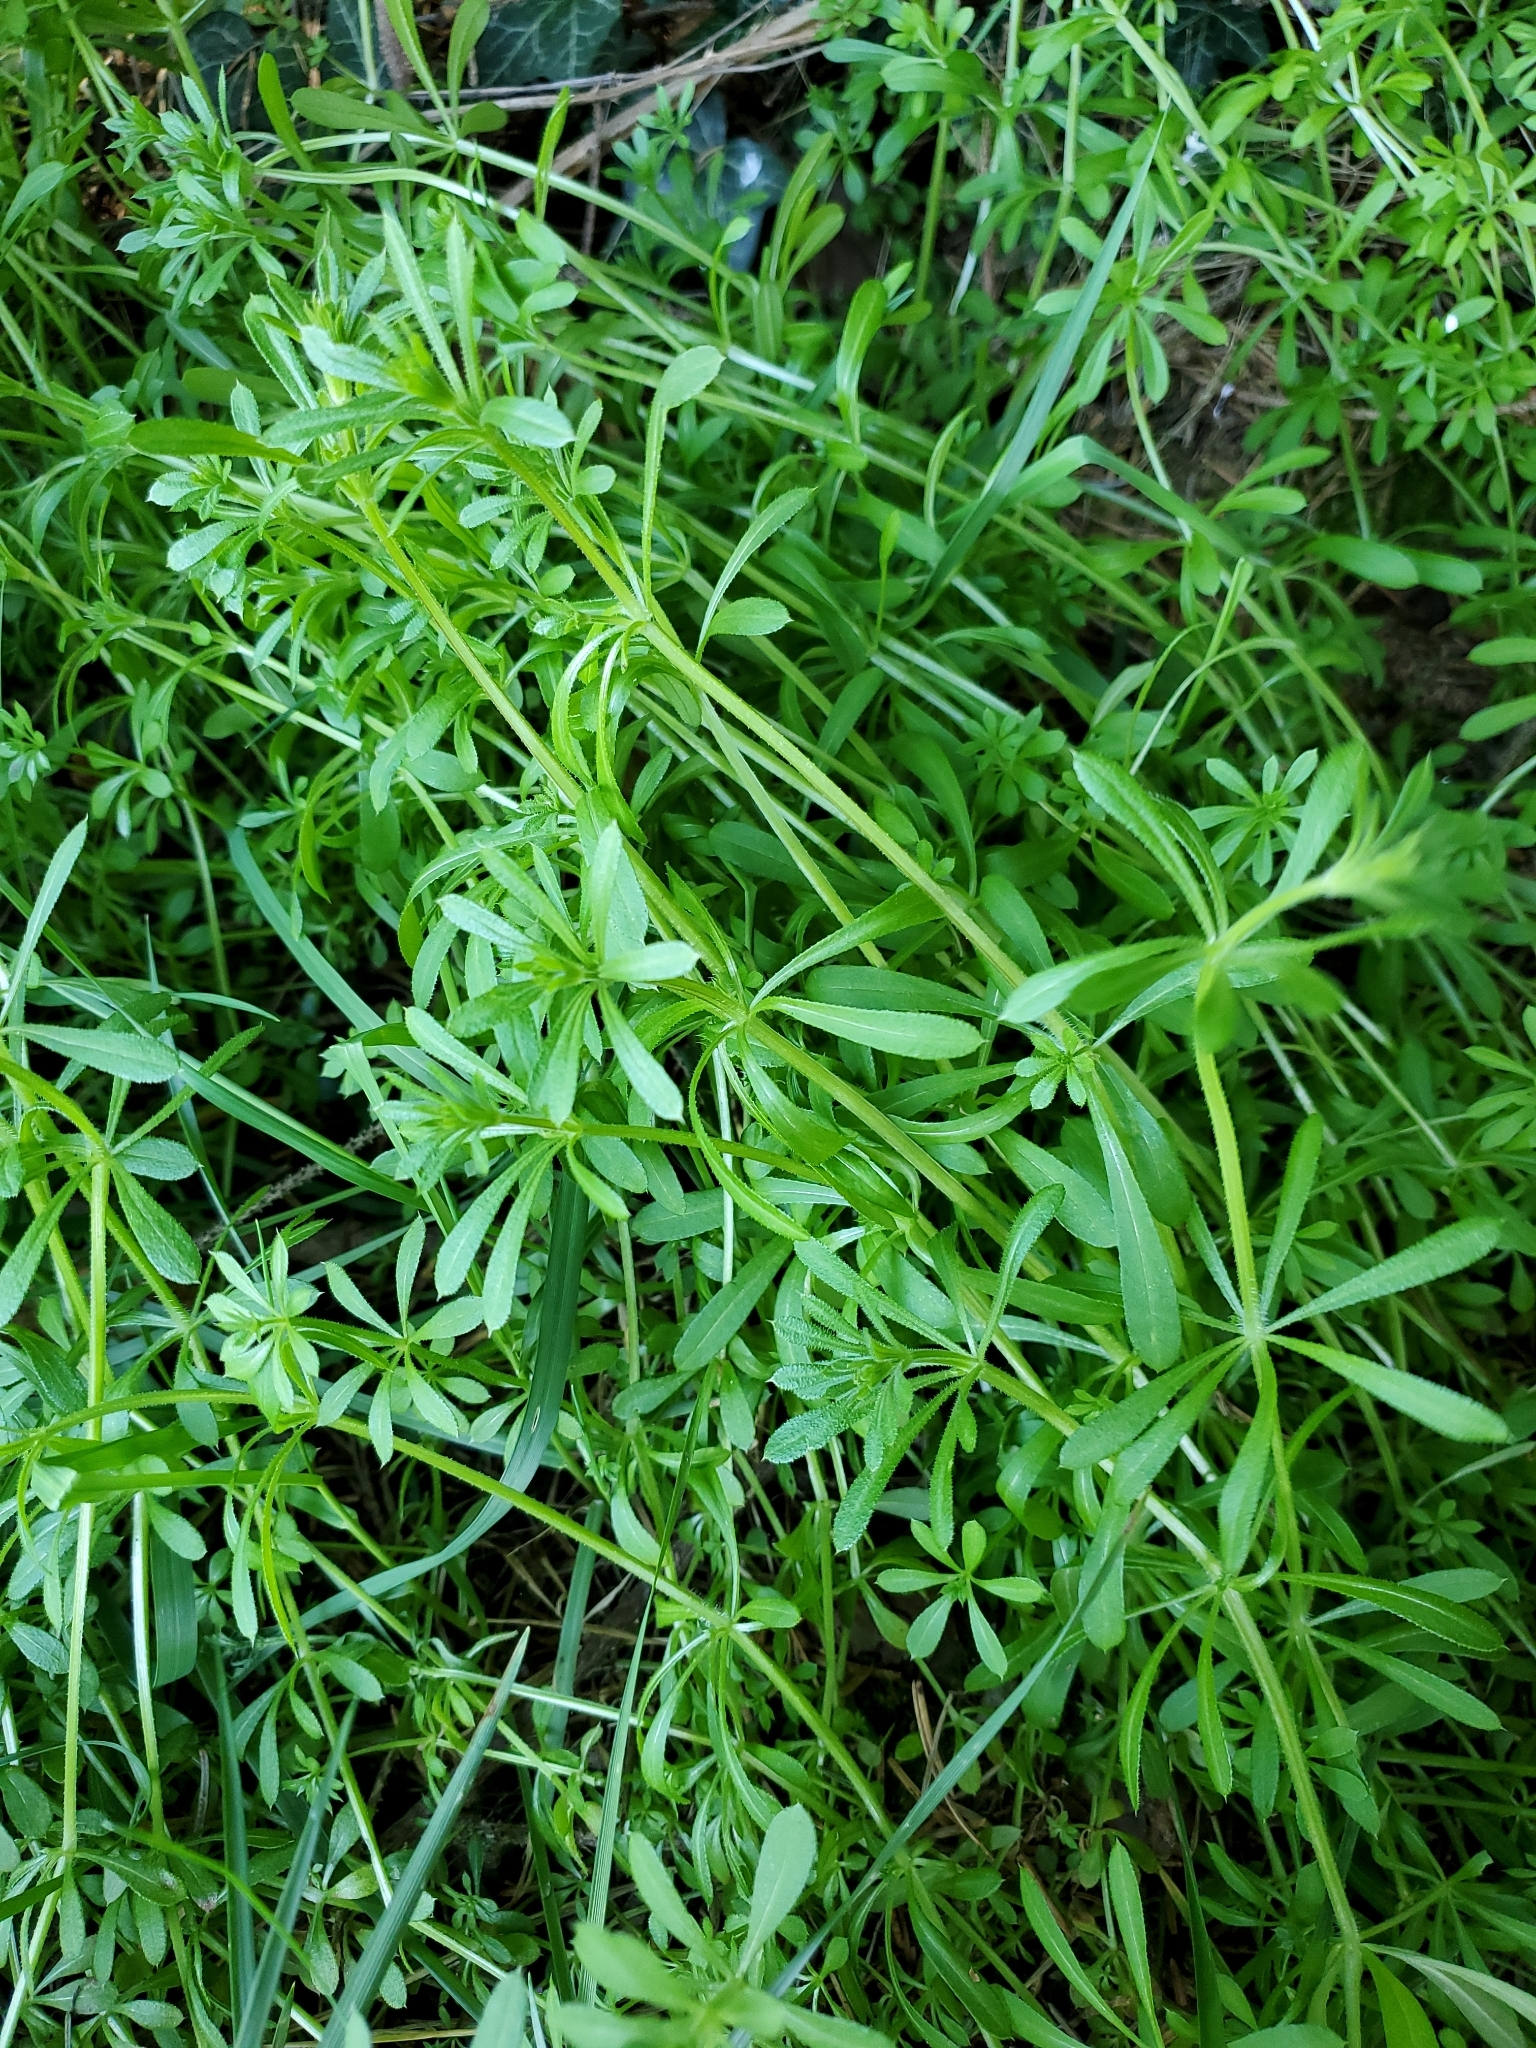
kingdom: Plantae
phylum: Tracheophyta
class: Magnoliopsida
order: Gentianales
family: Rubiaceae
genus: Galium
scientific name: Galium aparine
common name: Cleavers
